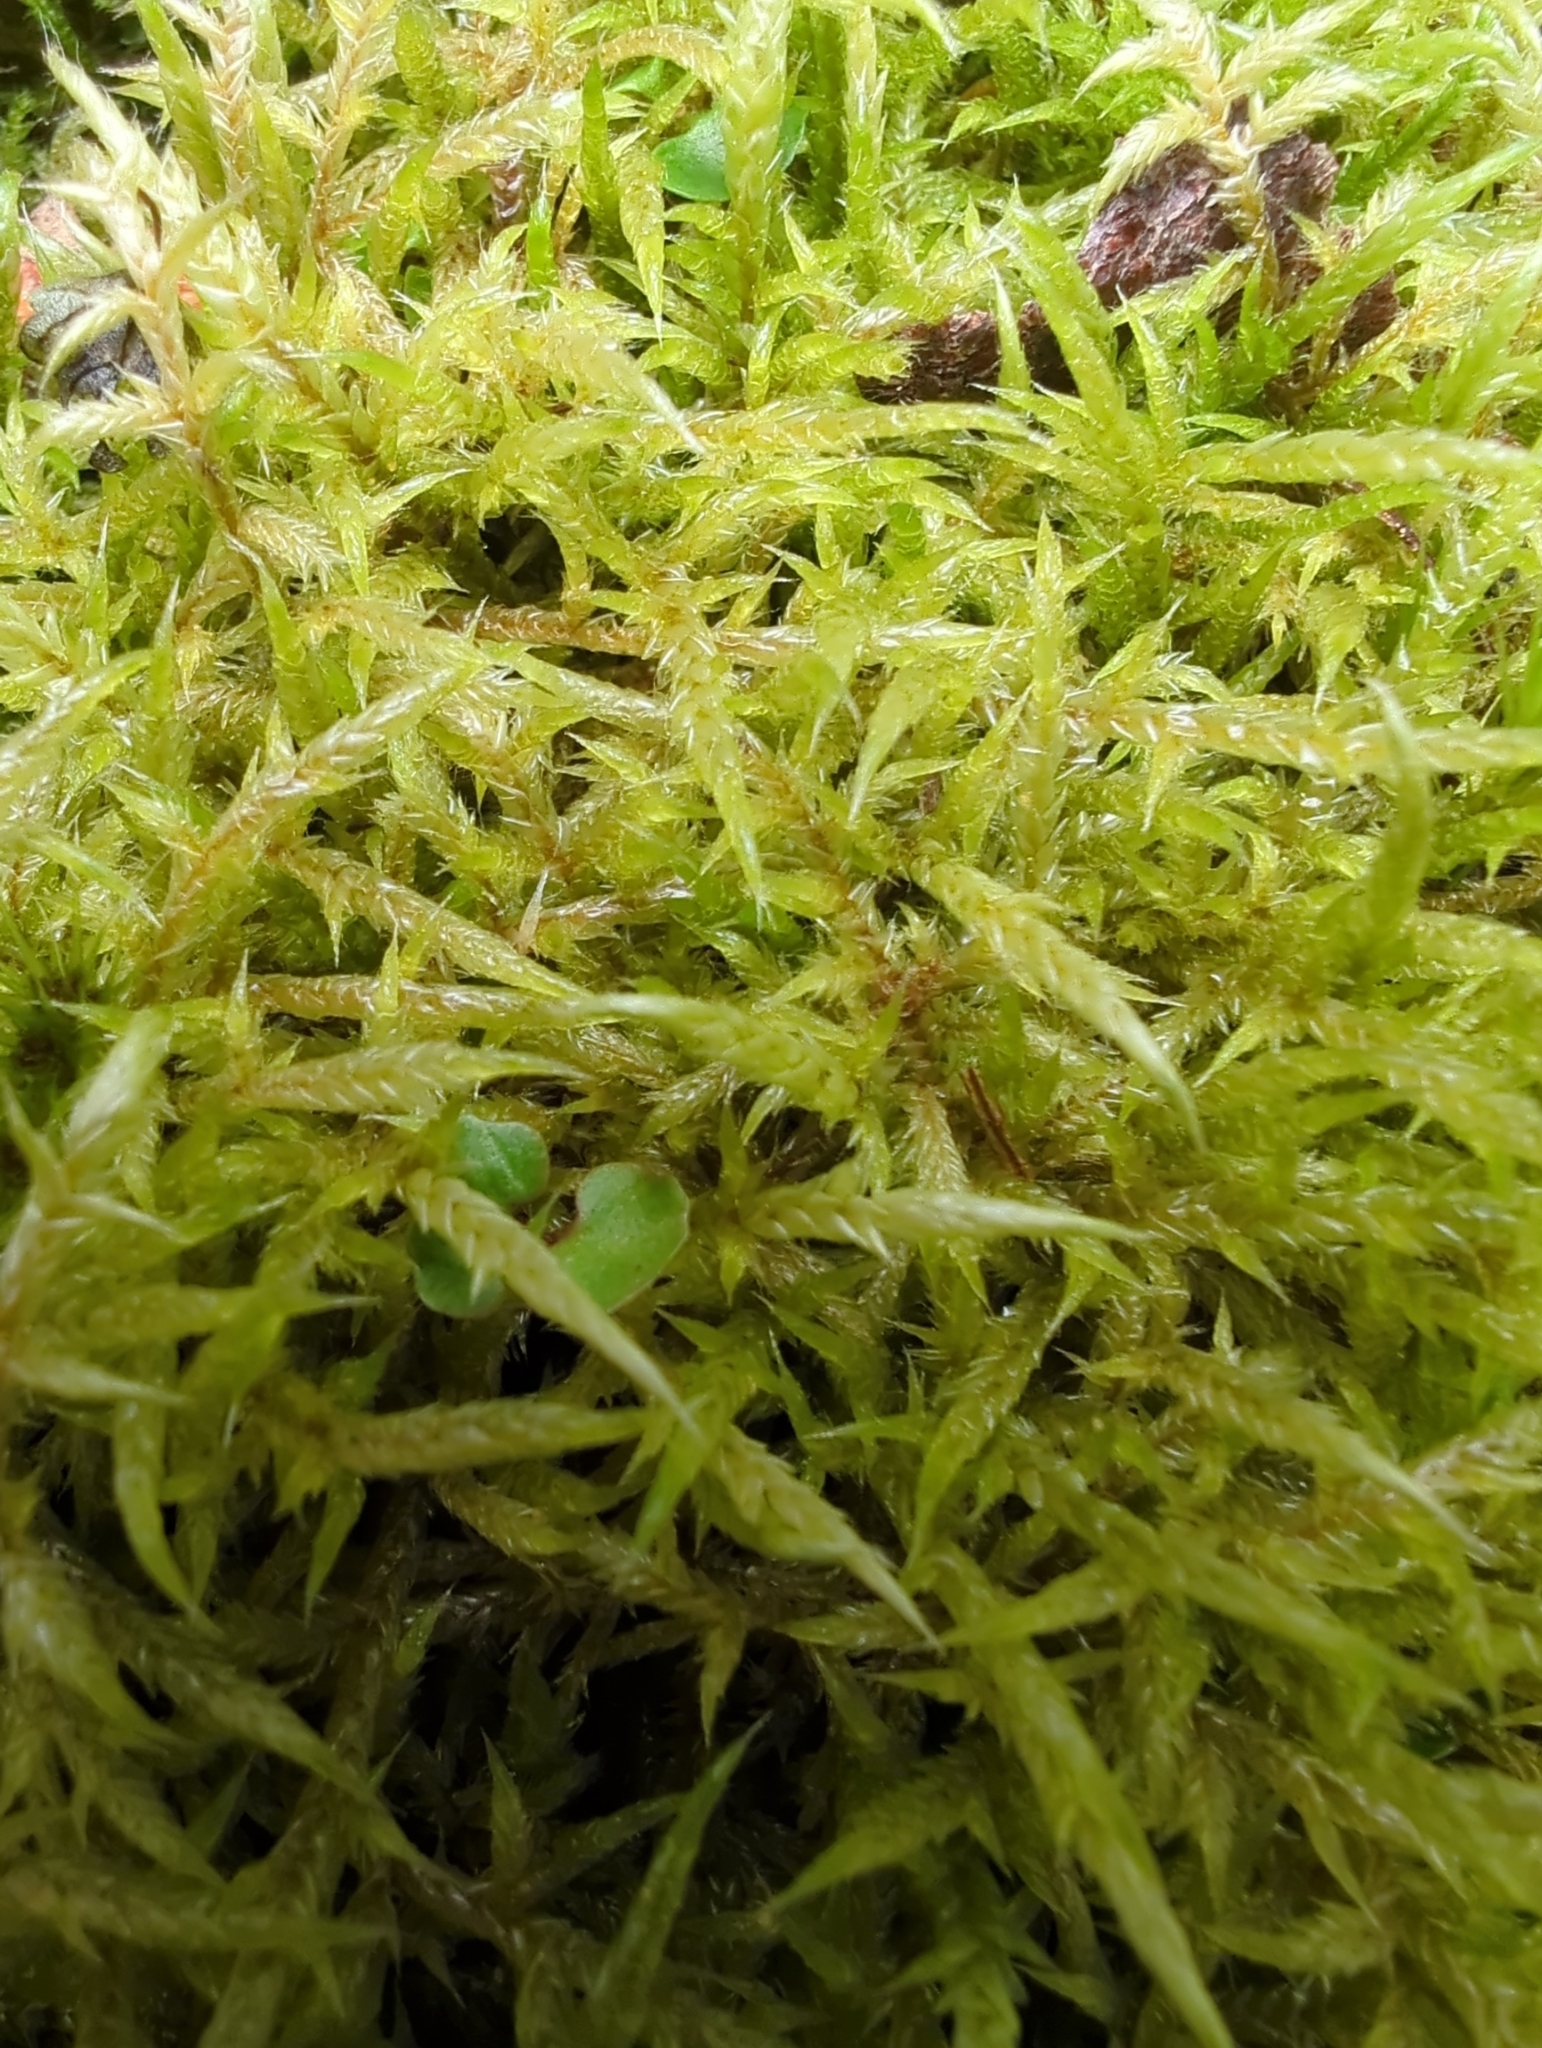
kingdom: Plantae
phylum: Bryophyta
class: Bryopsida
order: Hypnales
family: Pylaisiadelphaceae
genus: Wijkia
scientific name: Wijkia extenuata
